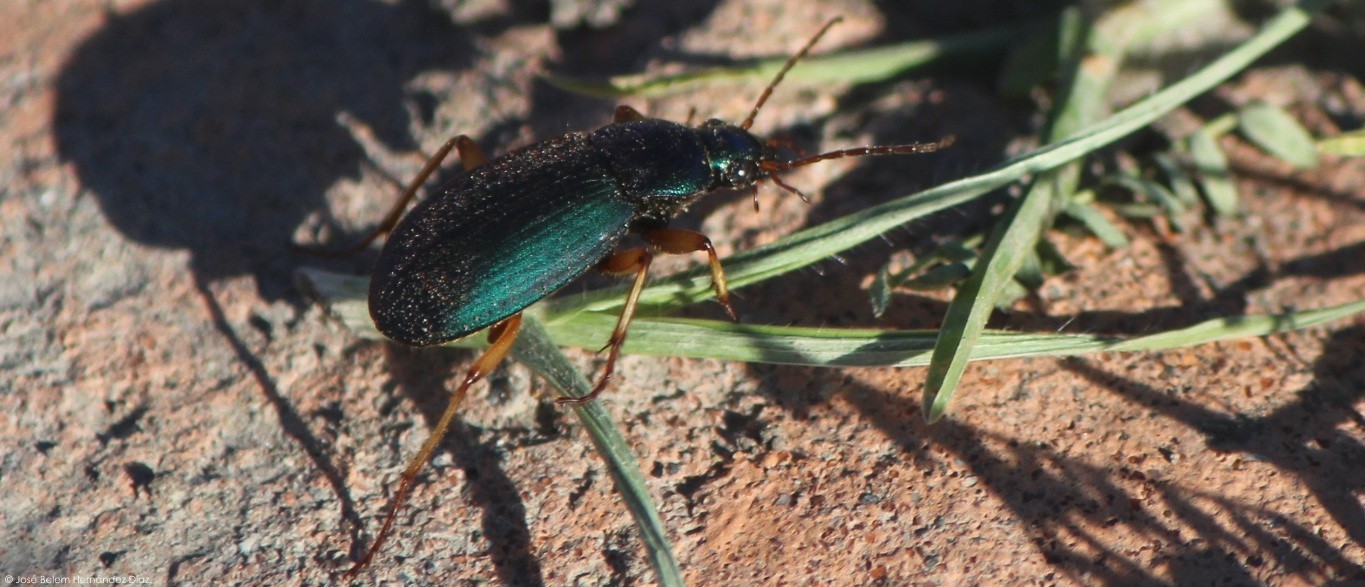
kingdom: Animalia
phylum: Arthropoda
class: Insecta
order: Coleoptera
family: Carabidae
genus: Chlaenius
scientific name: Chlaenius sericeus
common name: Green pubescent ground beetle
